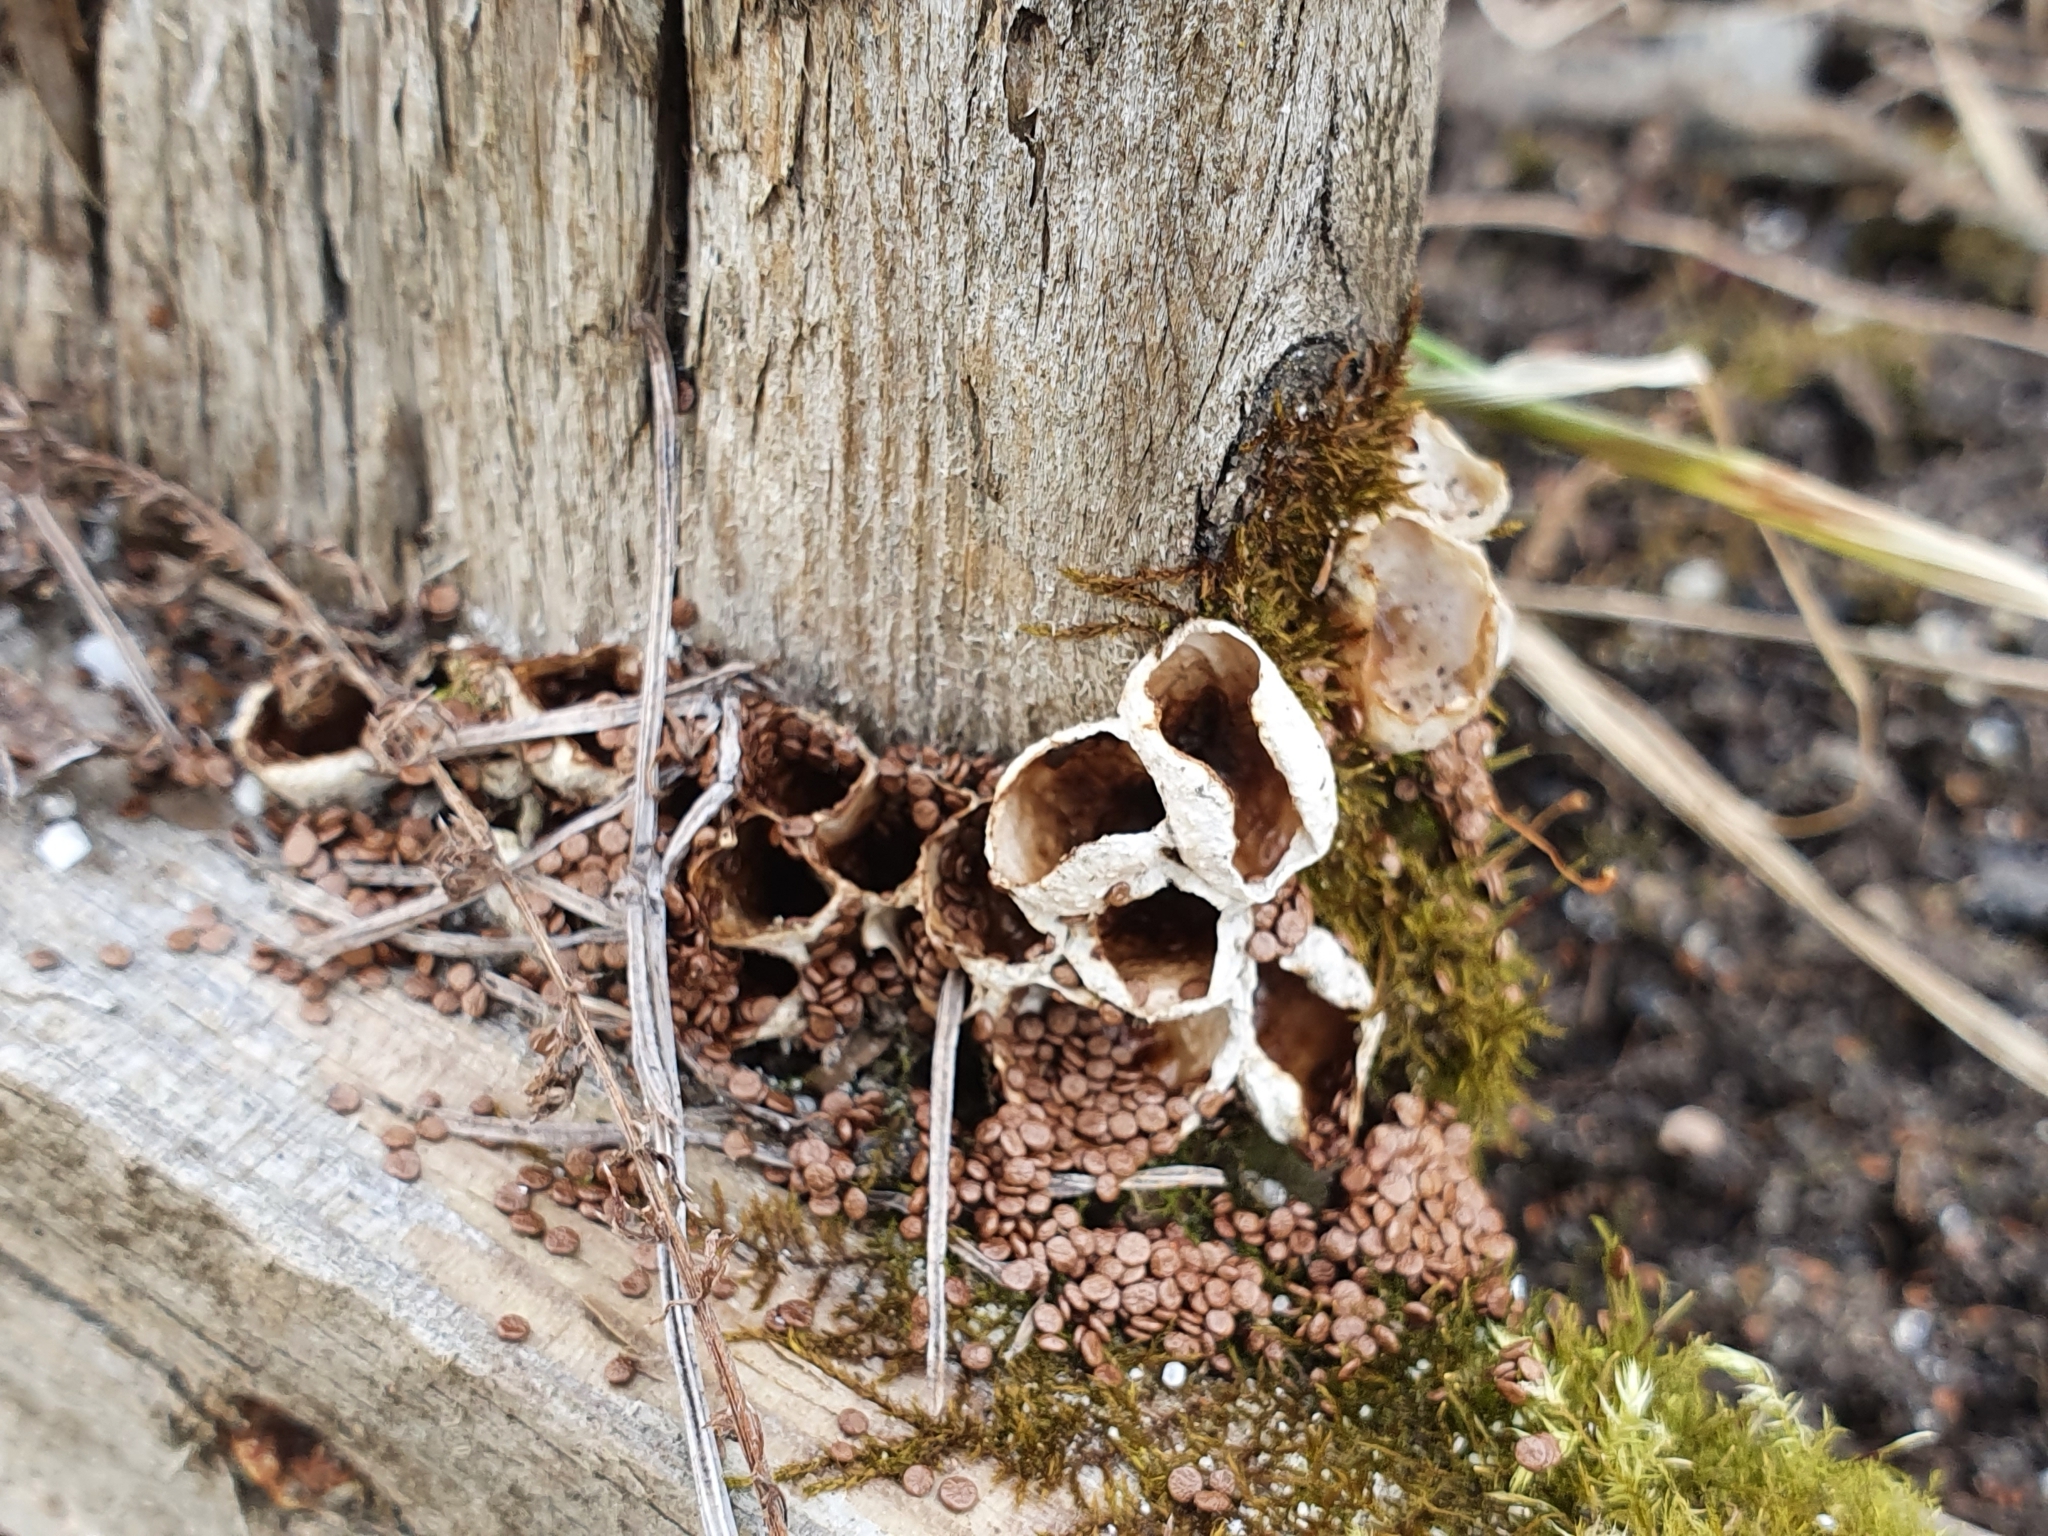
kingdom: Fungi
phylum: Basidiomycota
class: Agaricomycetes
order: Agaricales
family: Agaricaceae
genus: Nidularia
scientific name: Nidularia deformis
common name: Pea-shaped bird's nest
